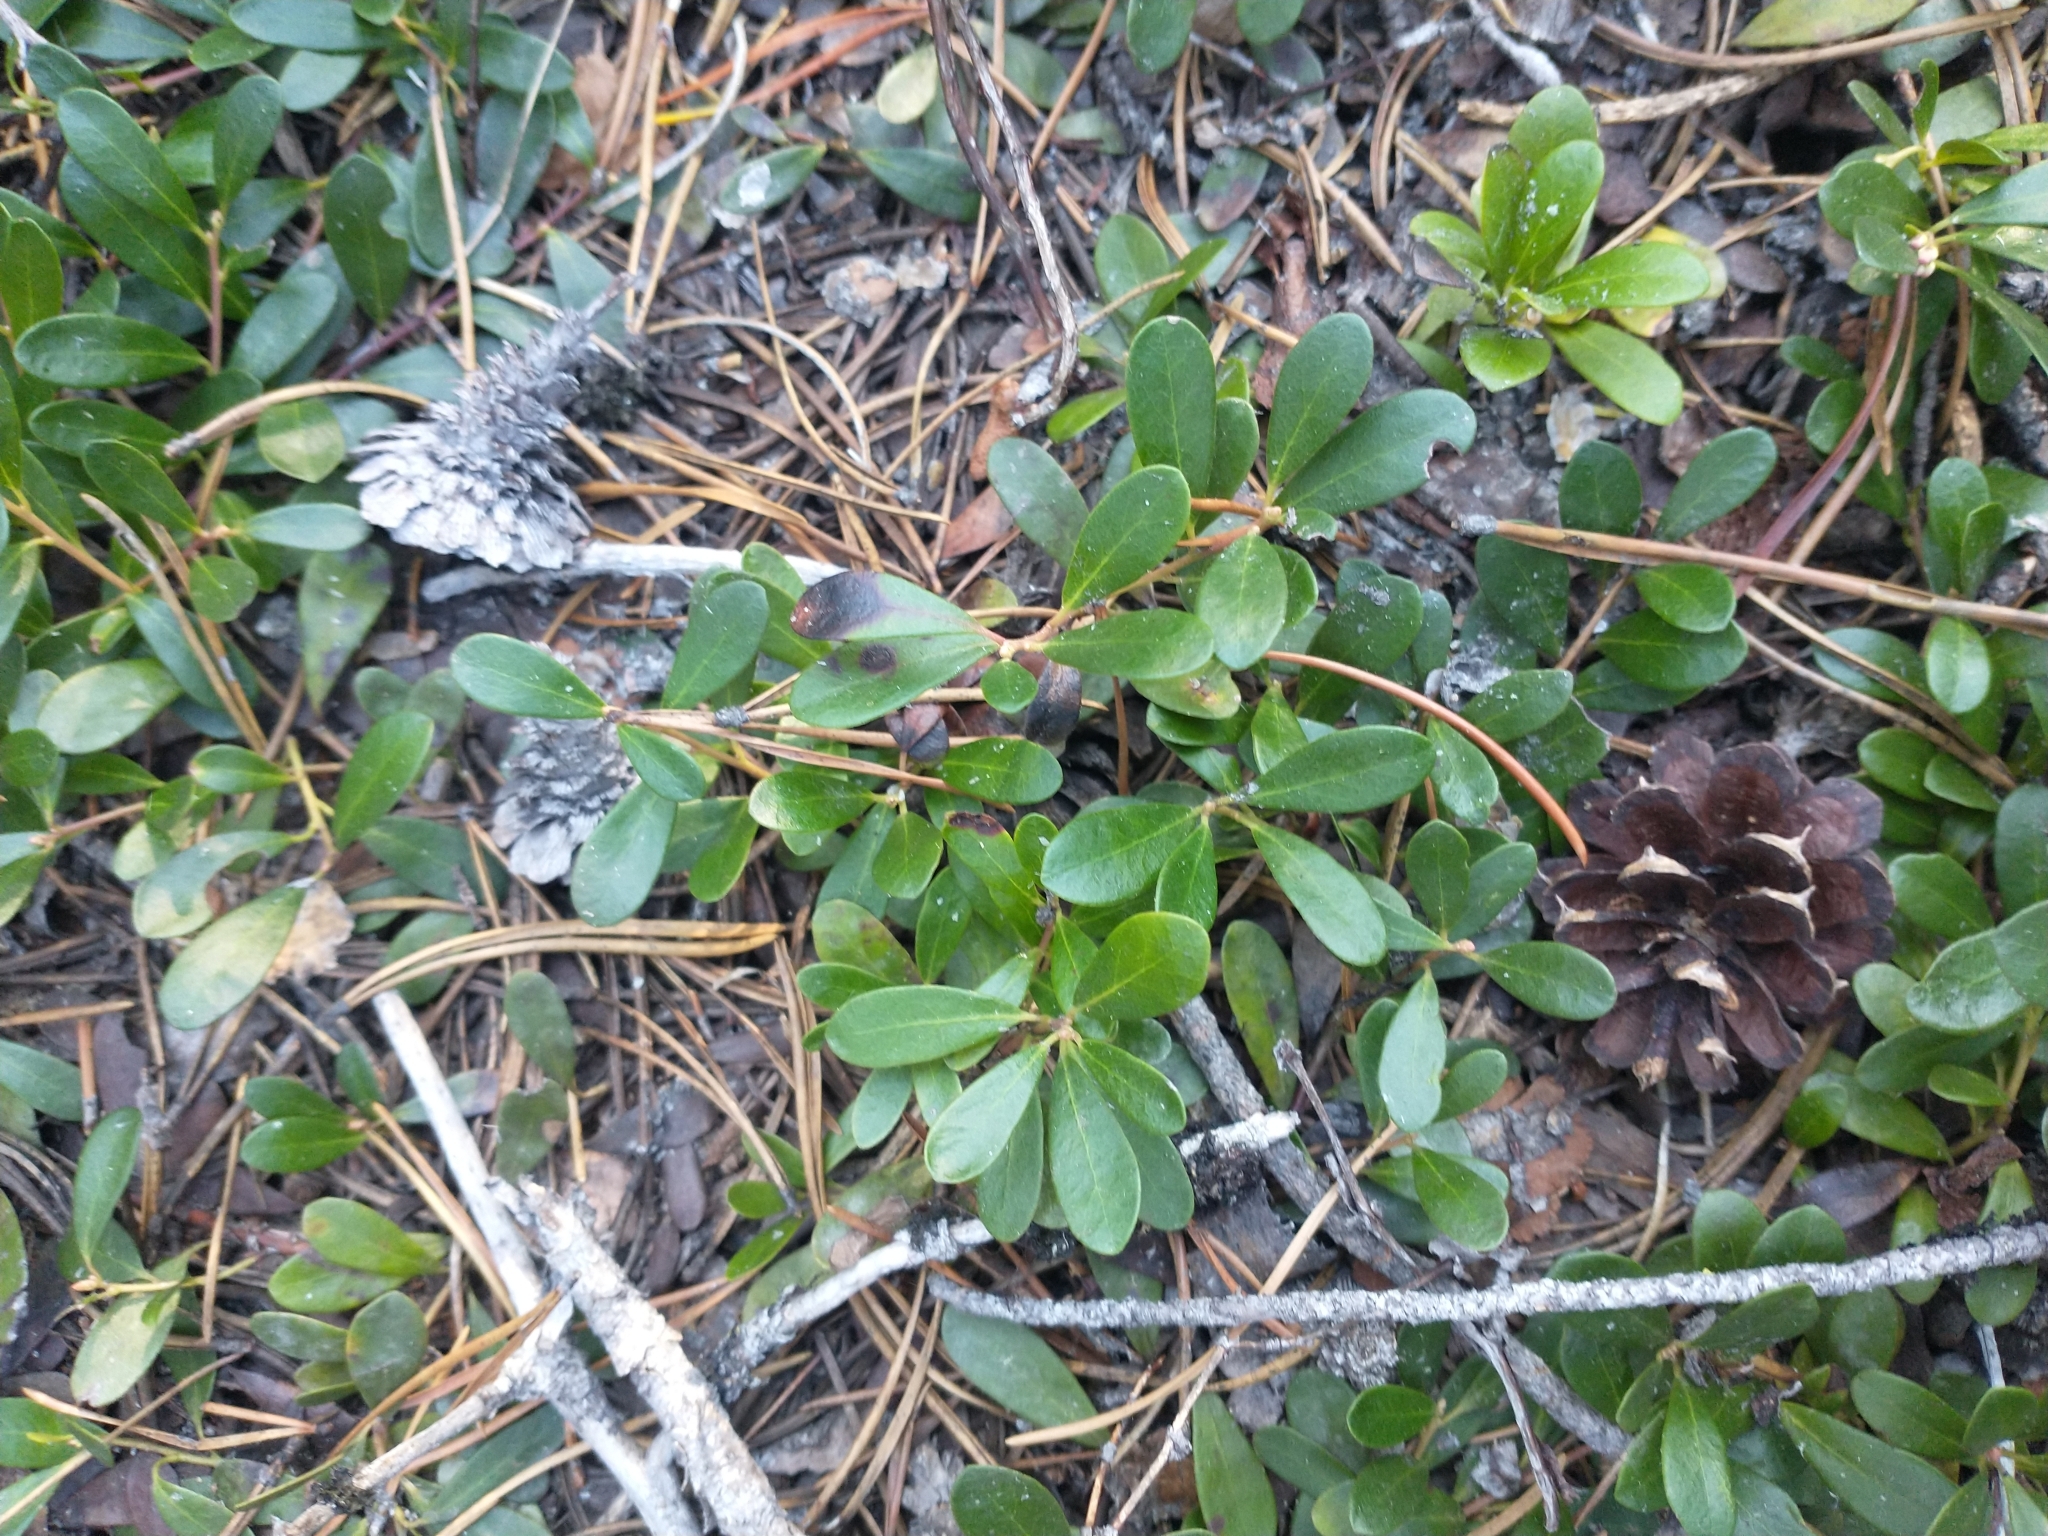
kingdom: Plantae
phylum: Tracheophyta
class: Magnoliopsida
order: Ericales
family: Ericaceae
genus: Arctostaphylos
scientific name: Arctostaphylos uva-ursi
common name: Bearberry
